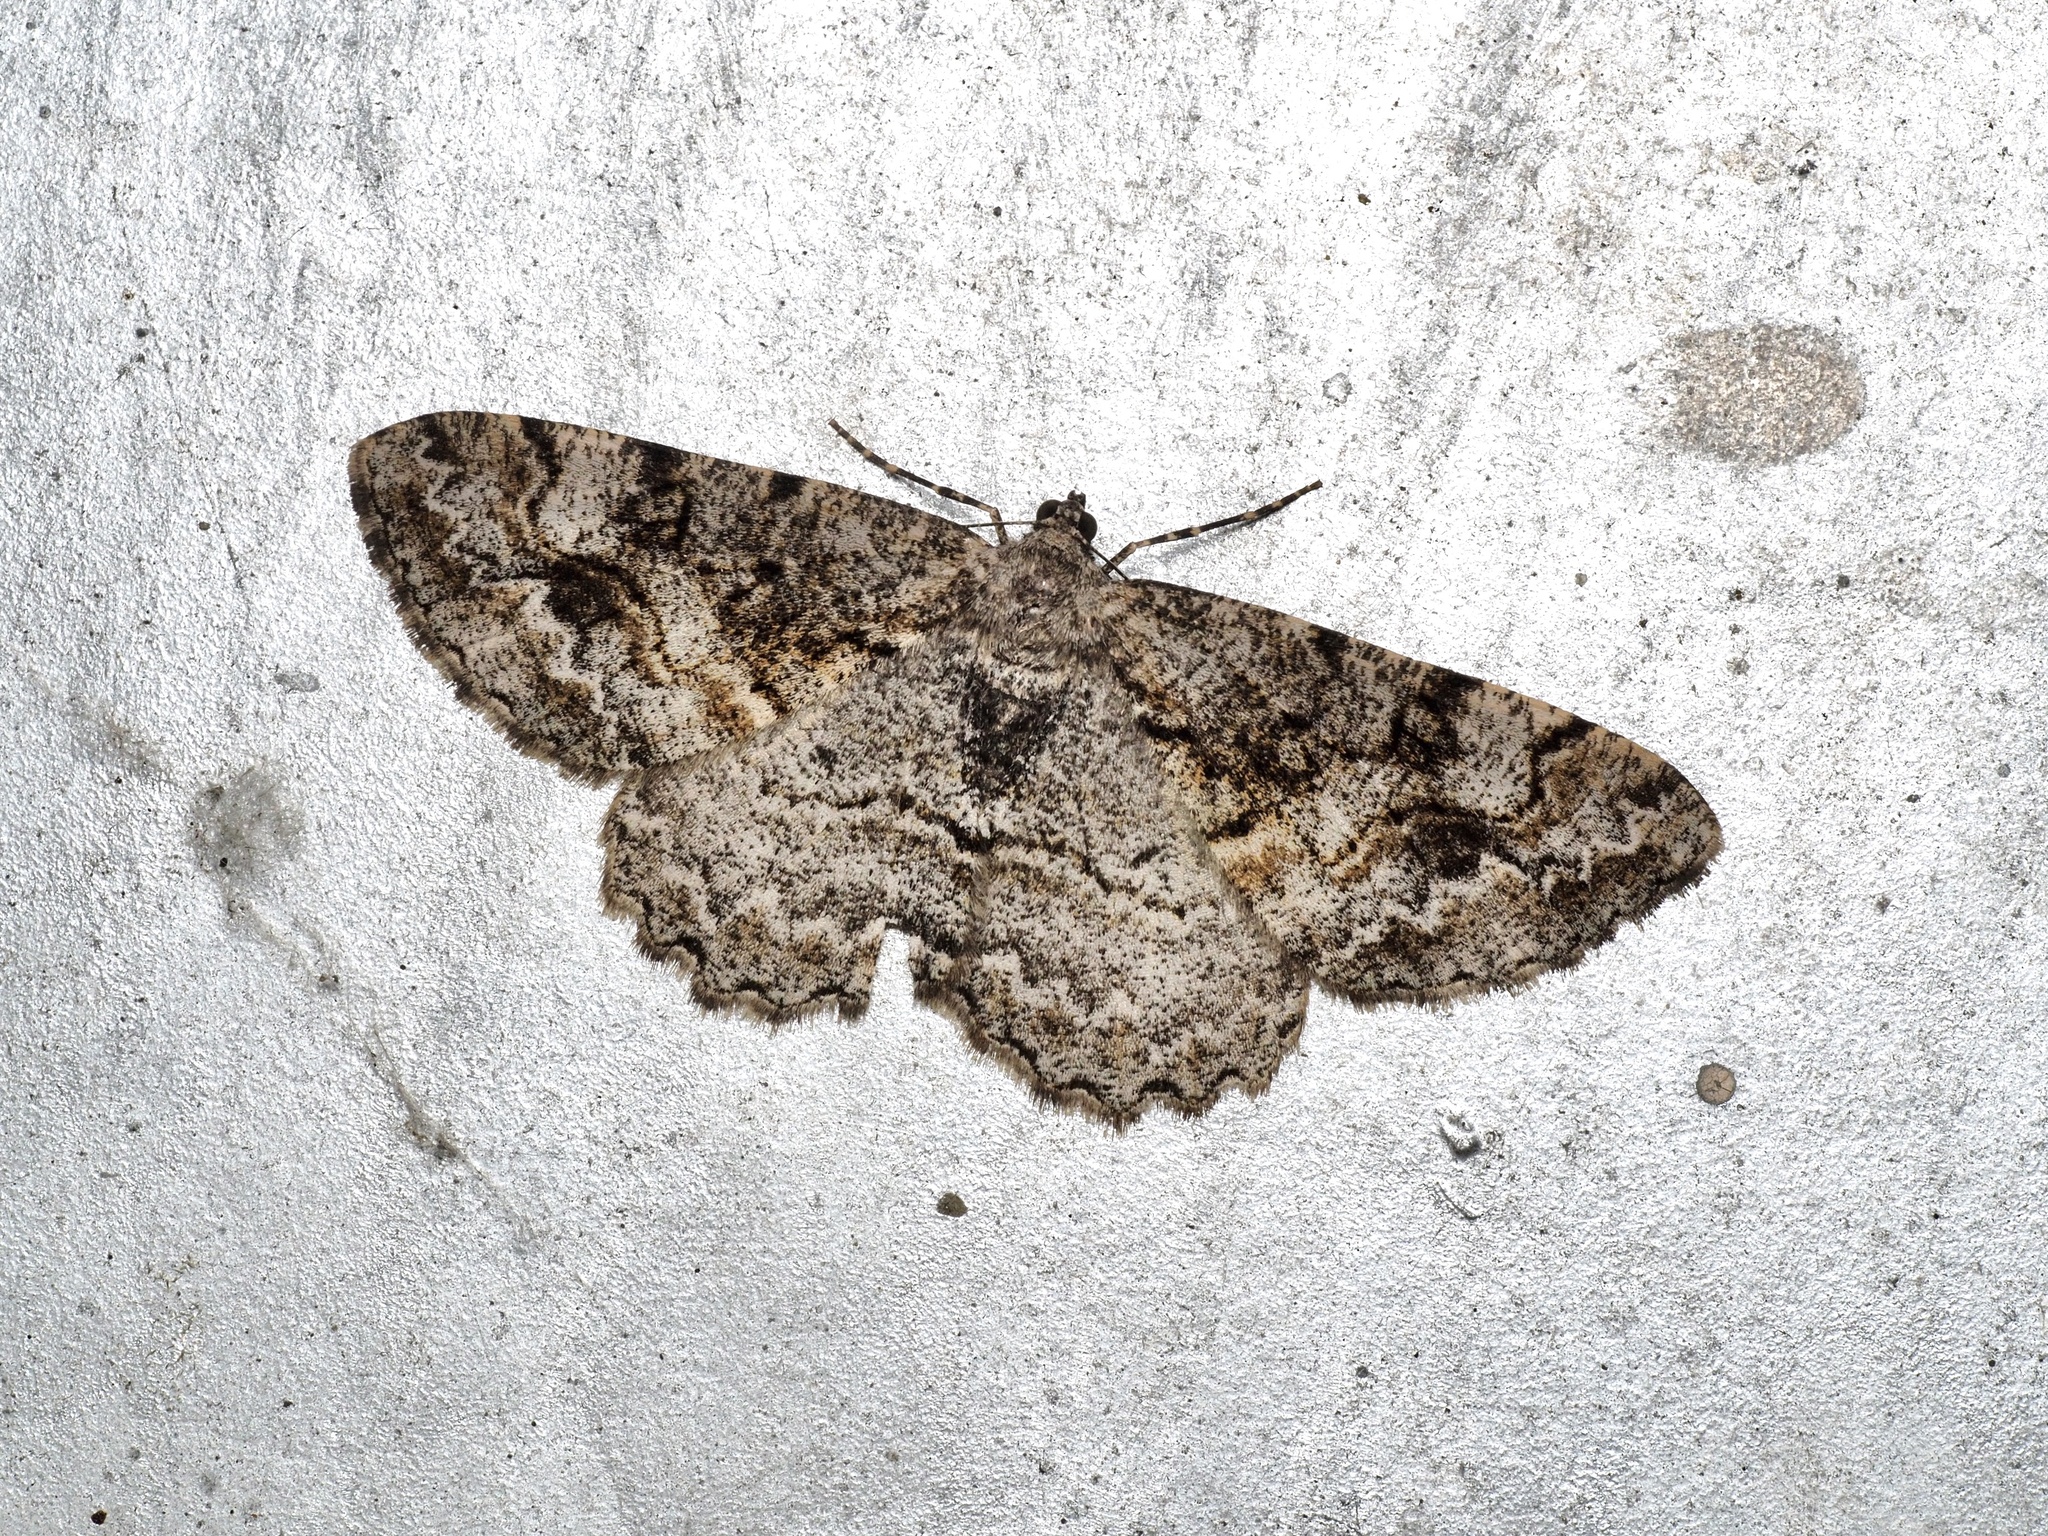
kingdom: Animalia
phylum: Arthropoda
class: Insecta
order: Lepidoptera
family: Geometridae
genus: Alcis
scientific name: Alcis repandata
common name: Mottled beauty
